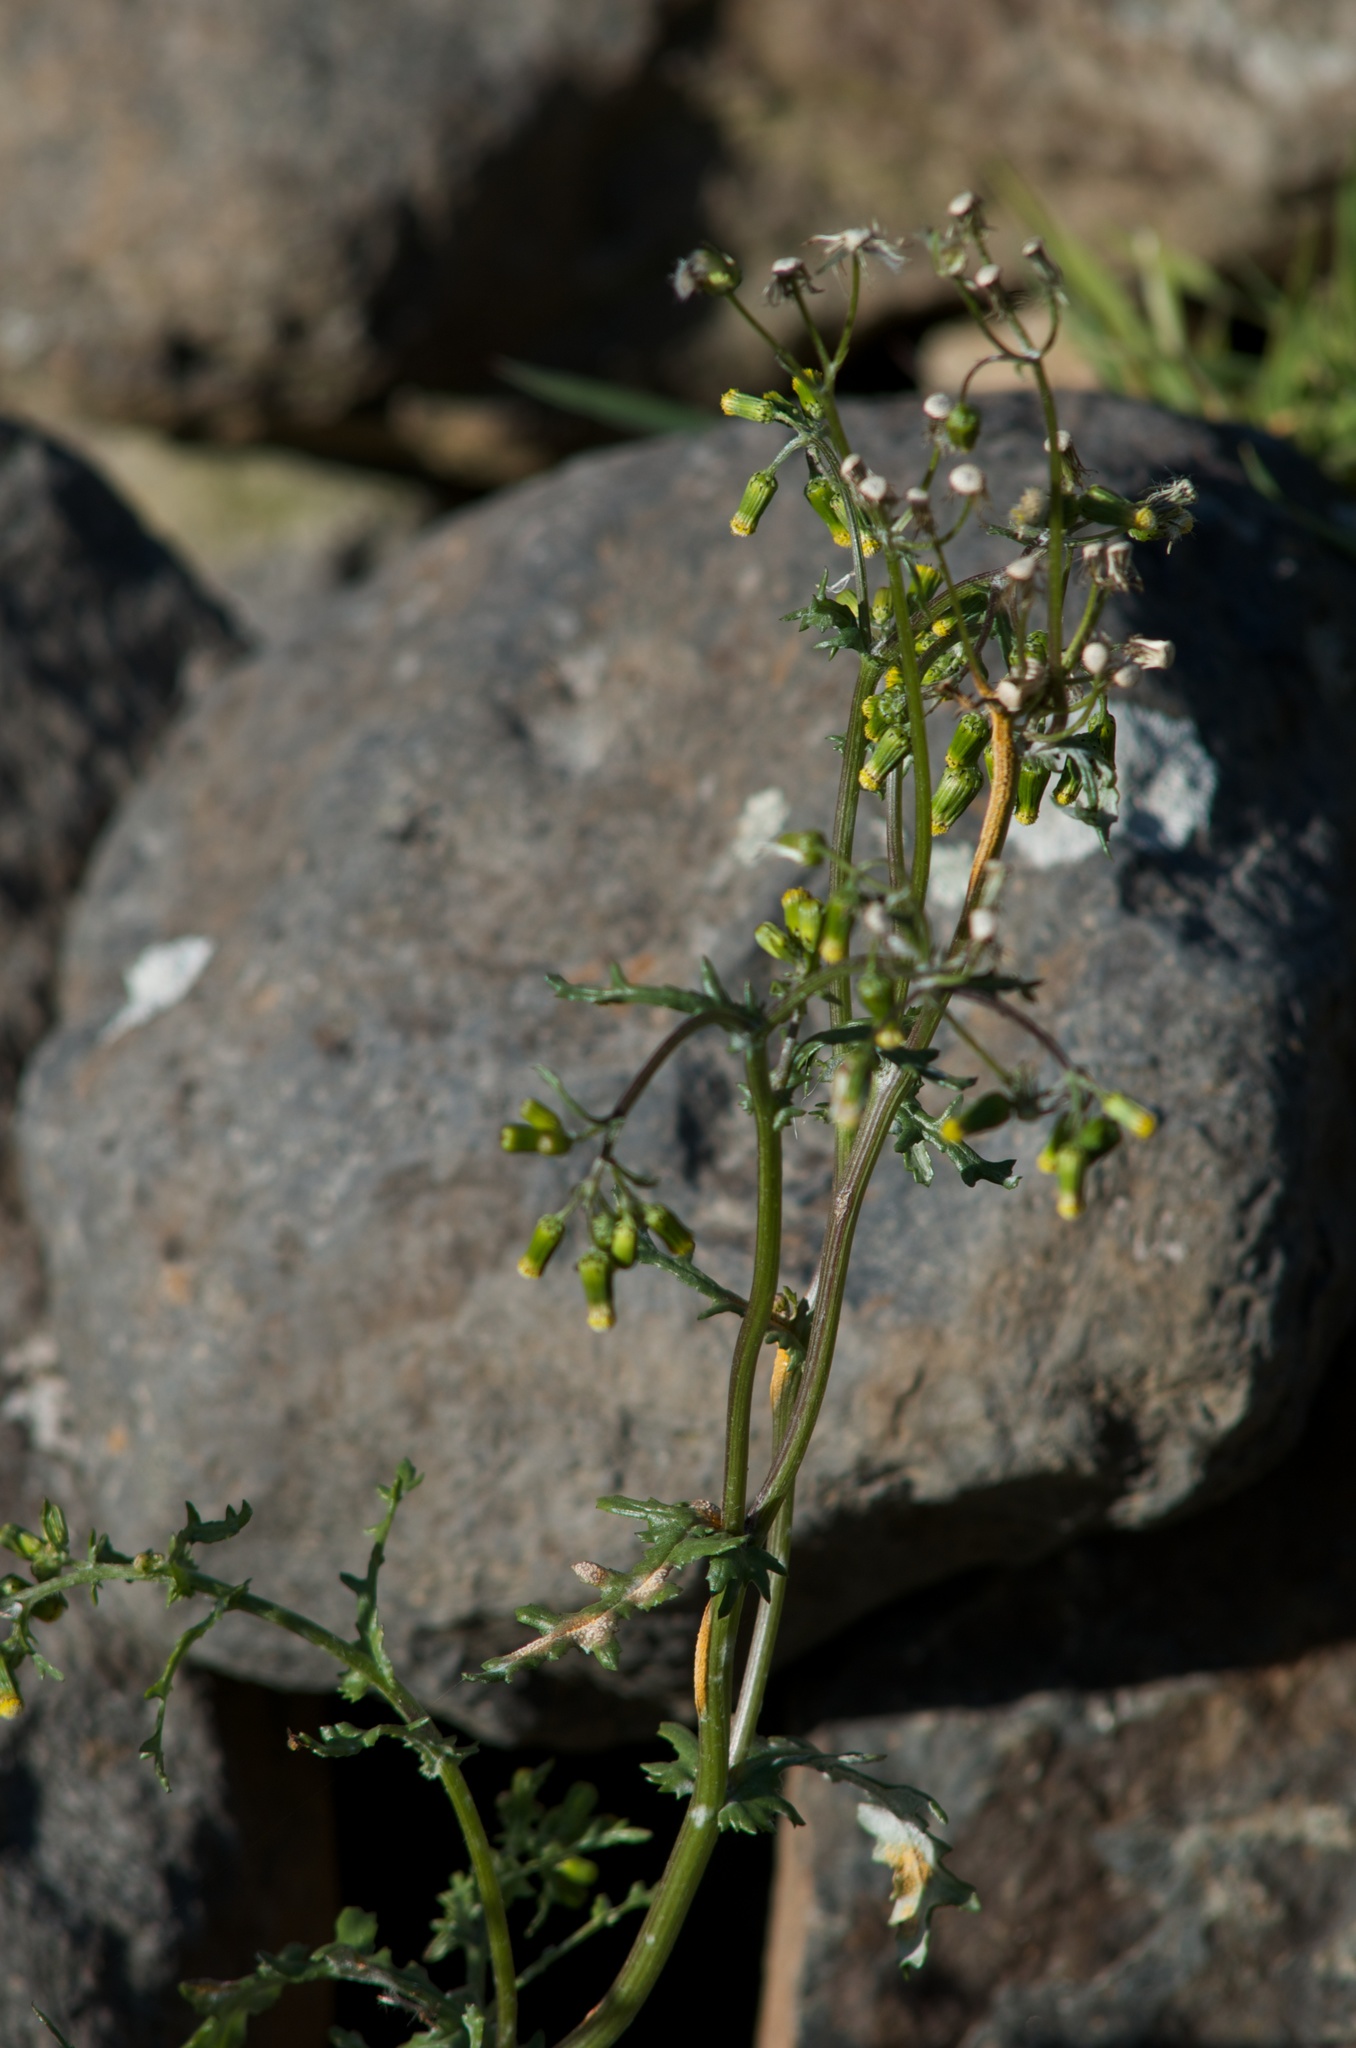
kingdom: Fungi
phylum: Basidiomycota
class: Pucciniomycetes
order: Pucciniales
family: Pucciniaceae
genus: Puccinia
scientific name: Puccinia lagenophorae
